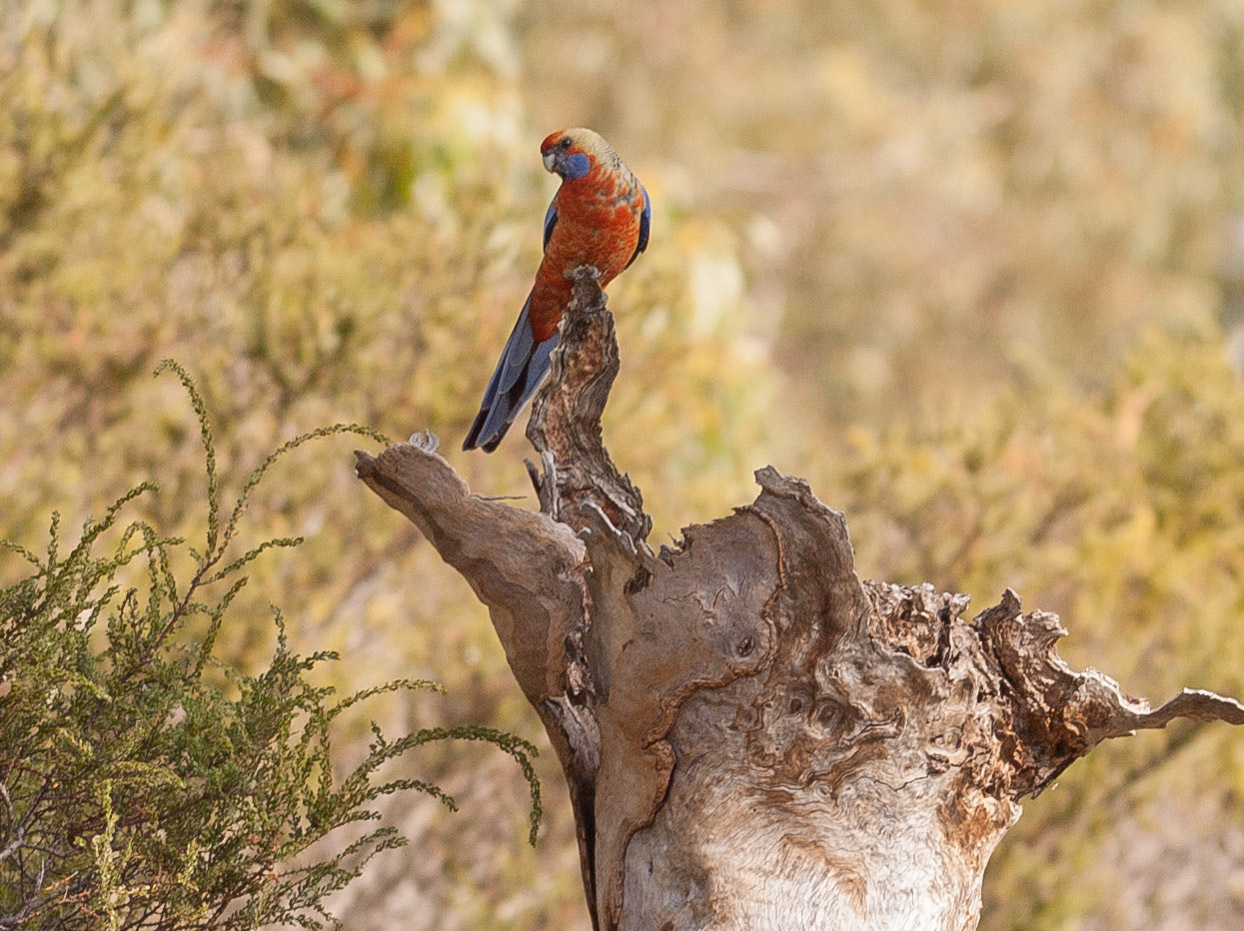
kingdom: Animalia
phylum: Chordata
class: Aves
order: Psittaciformes
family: Psittacidae
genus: Platycercus
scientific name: Platycercus elegans
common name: Crimson rosella
